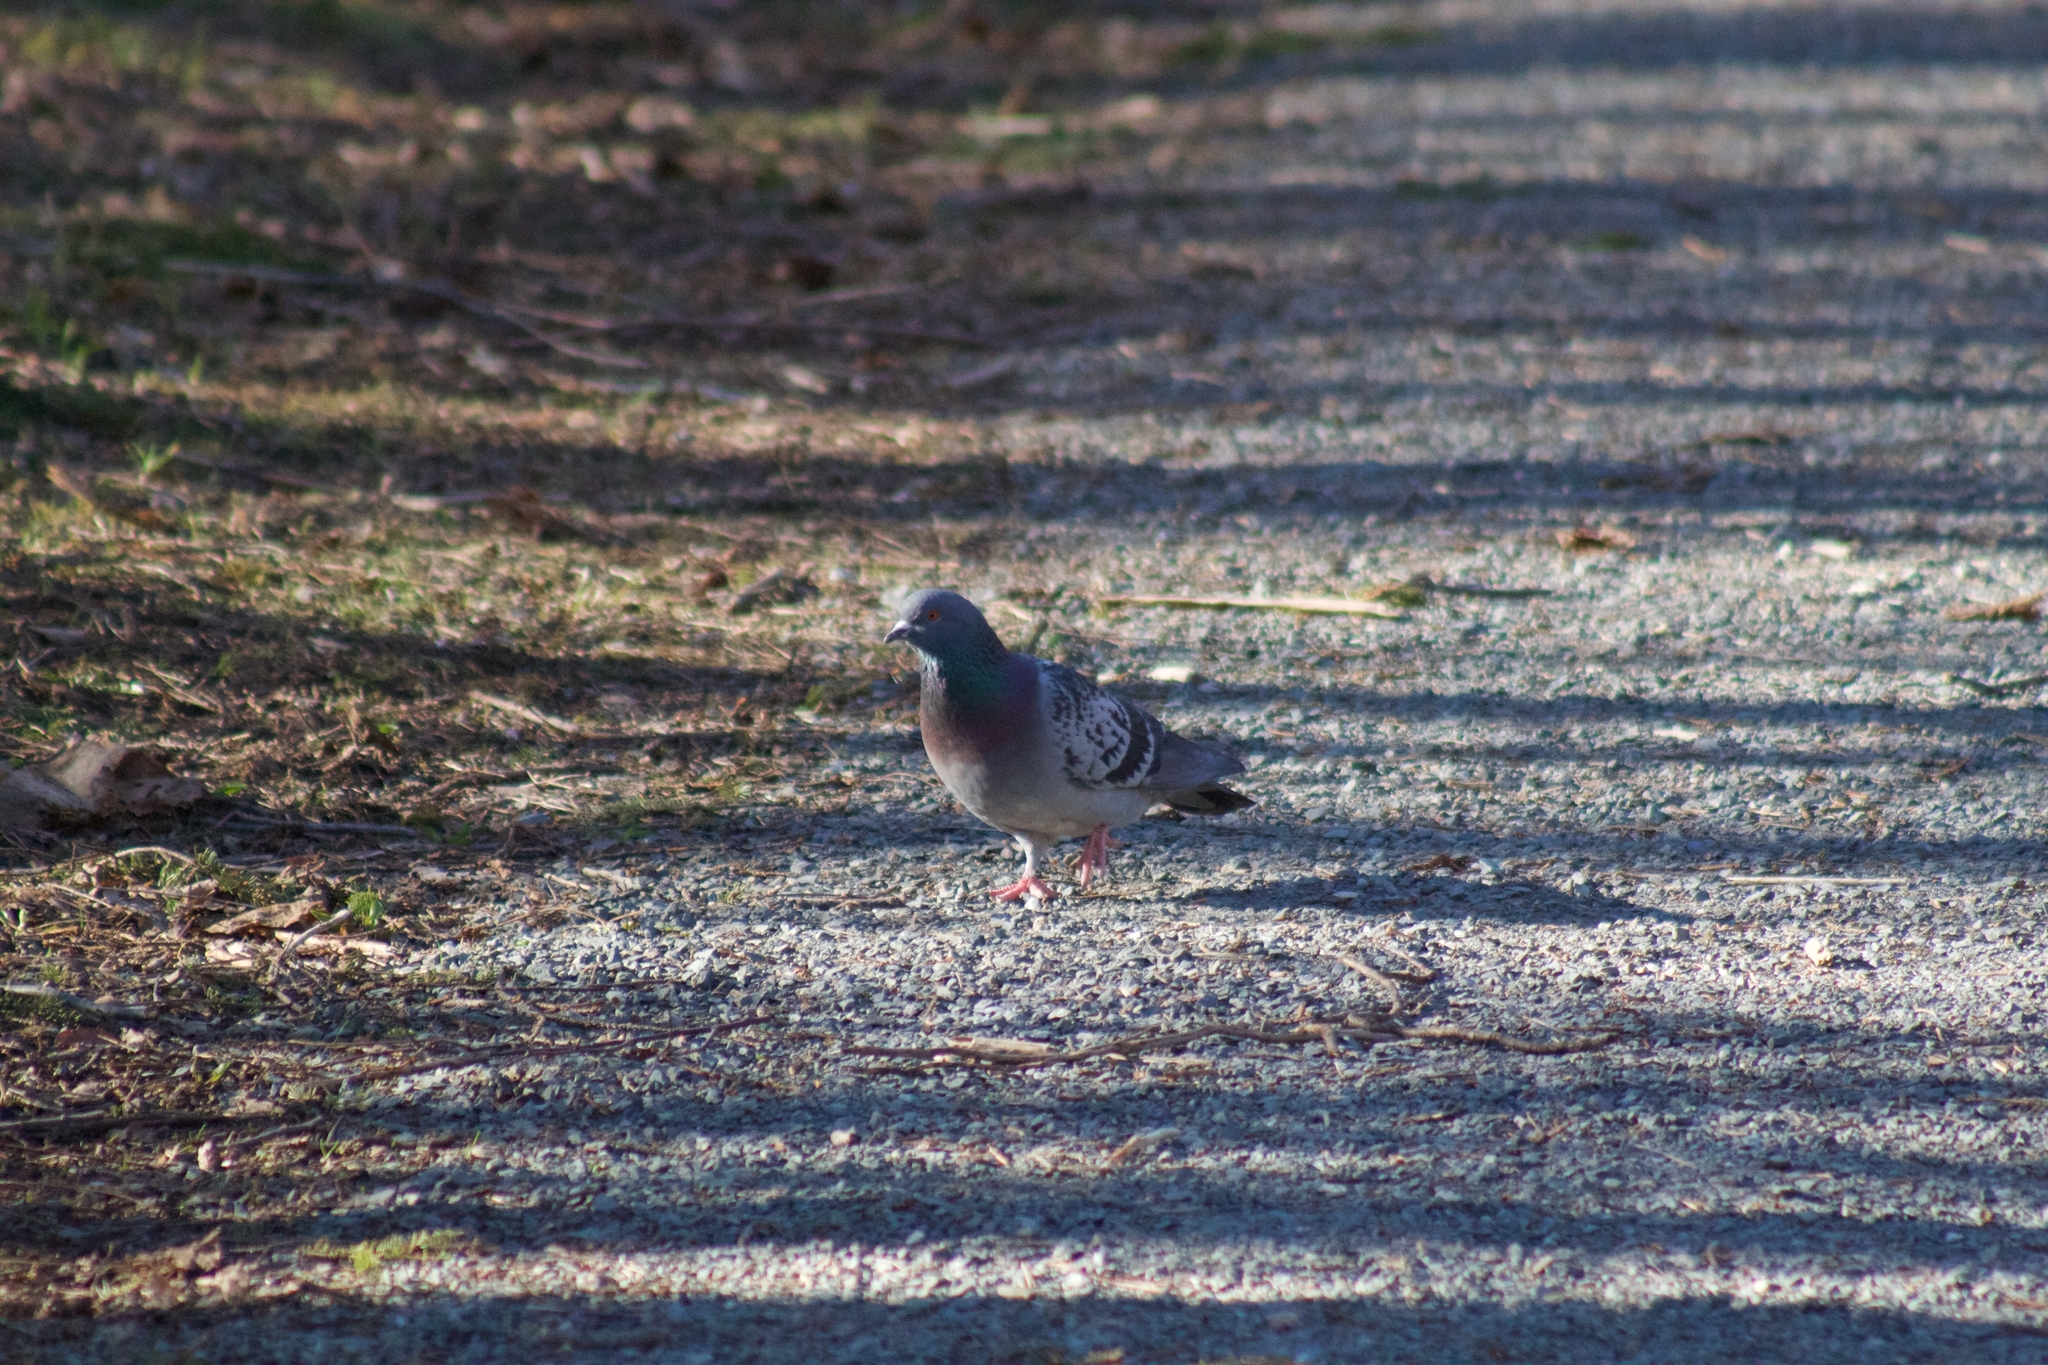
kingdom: Animalia
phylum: Chordata
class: Aves
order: Columbiformes
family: Columbidae
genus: Columba
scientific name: Columba livia
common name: Rock pigeon
